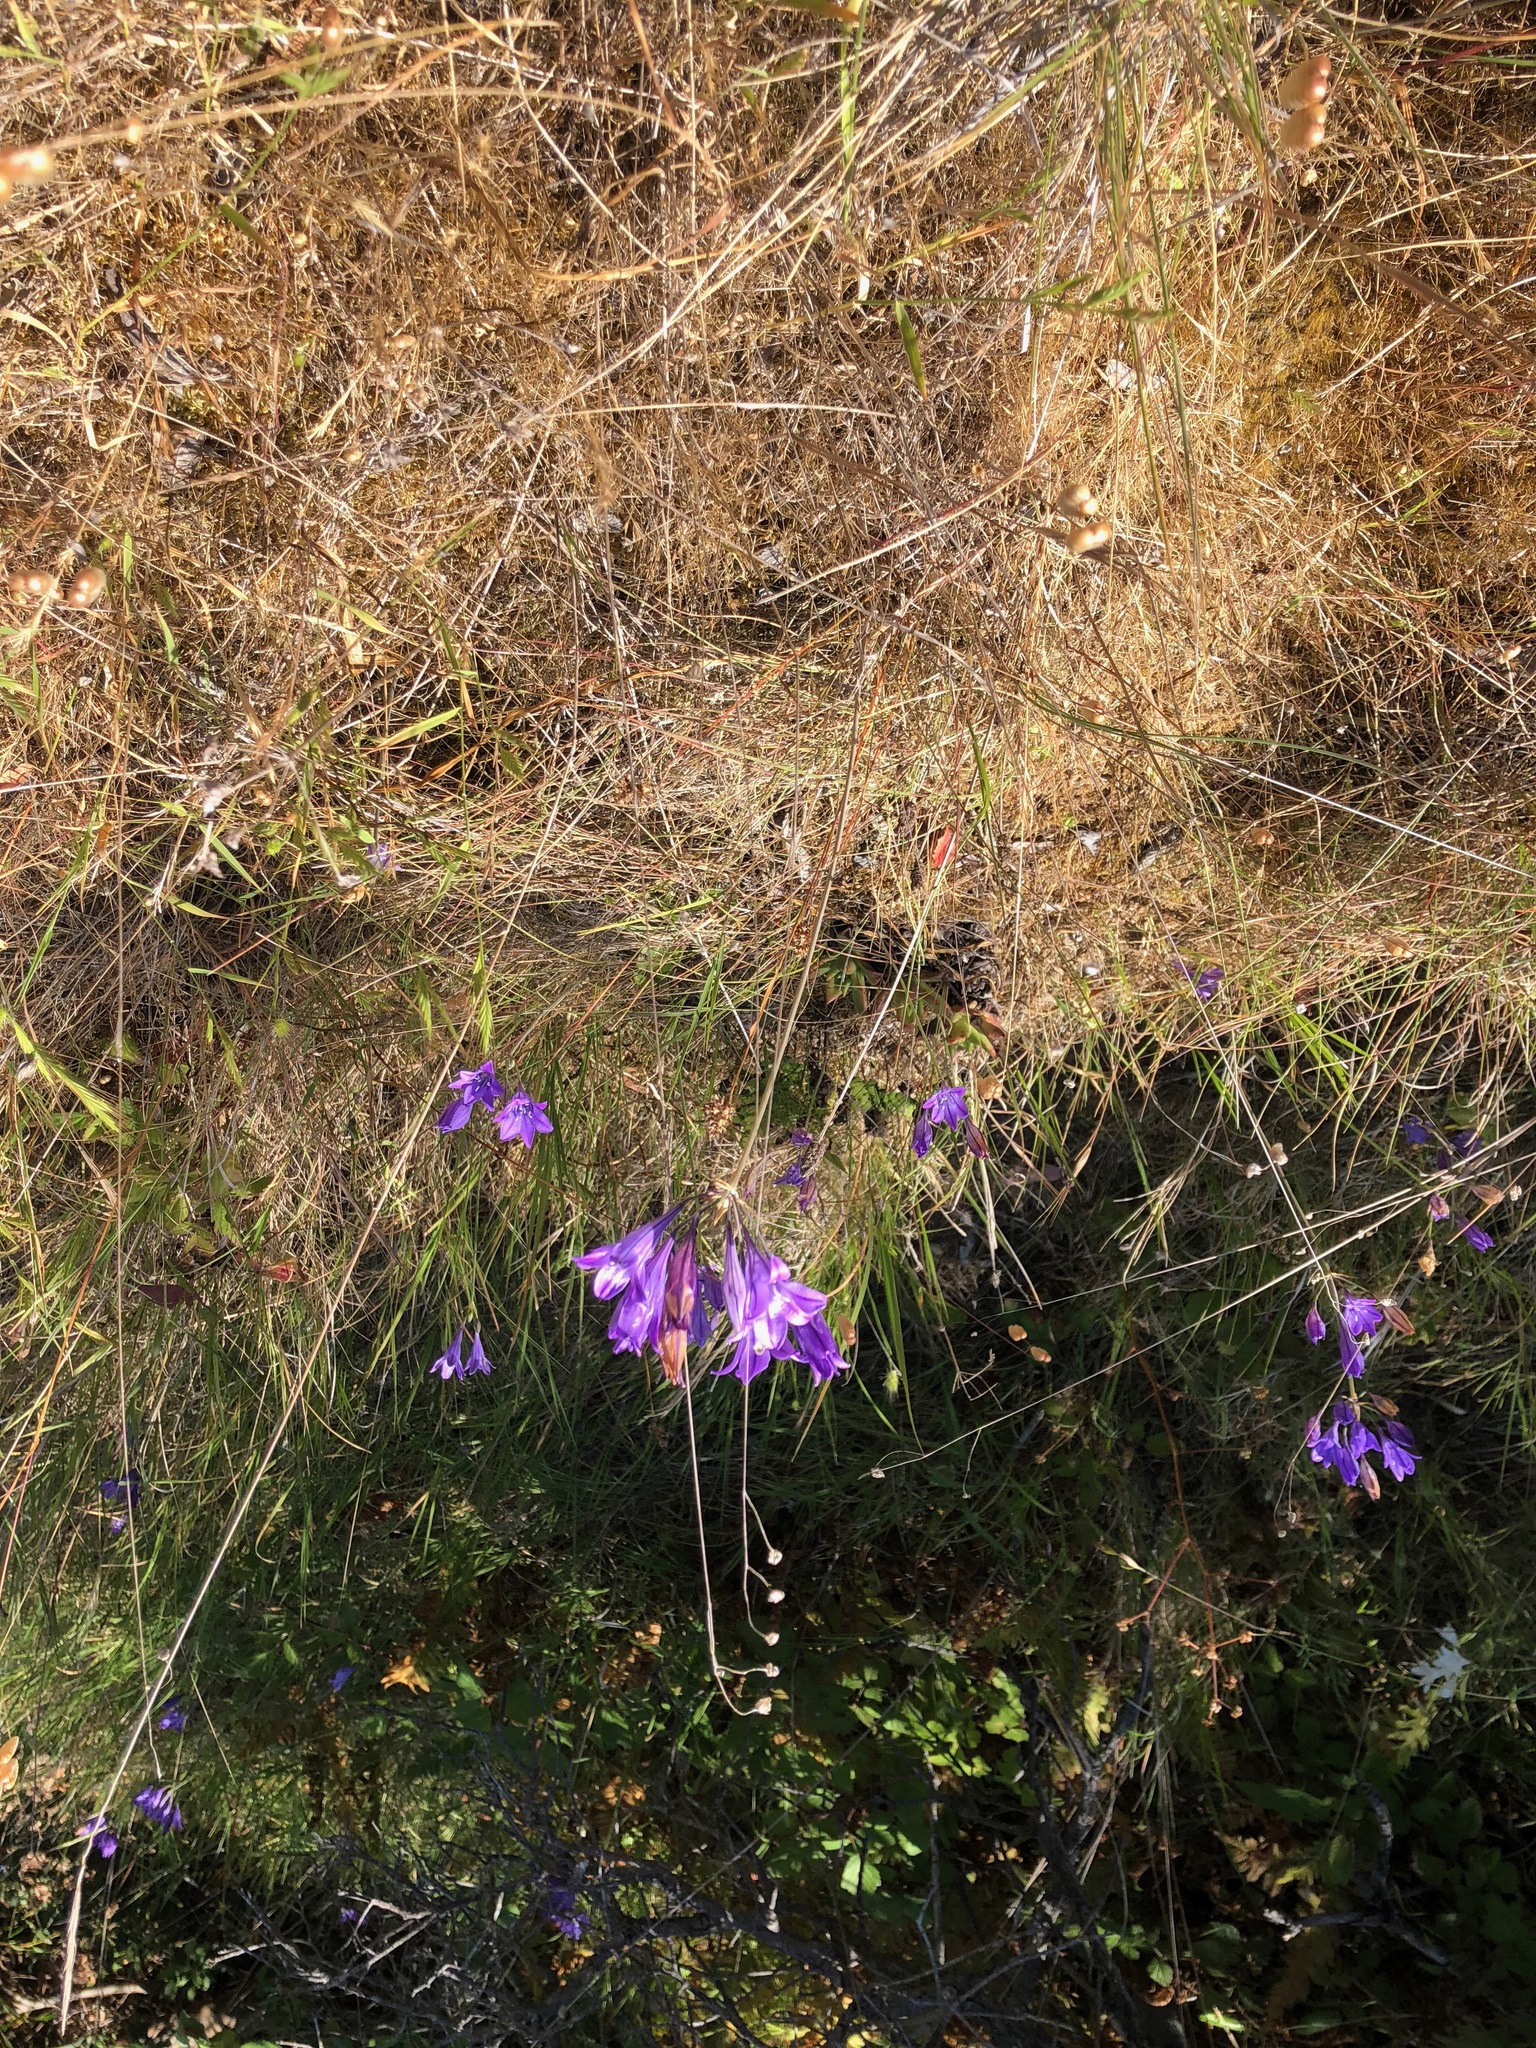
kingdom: Plantae
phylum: Tracheophyta
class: Liliopsida
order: Asparagales
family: Asparagaceae
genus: Triteleia
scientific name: Triteleia laxa
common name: Triplet-lily
